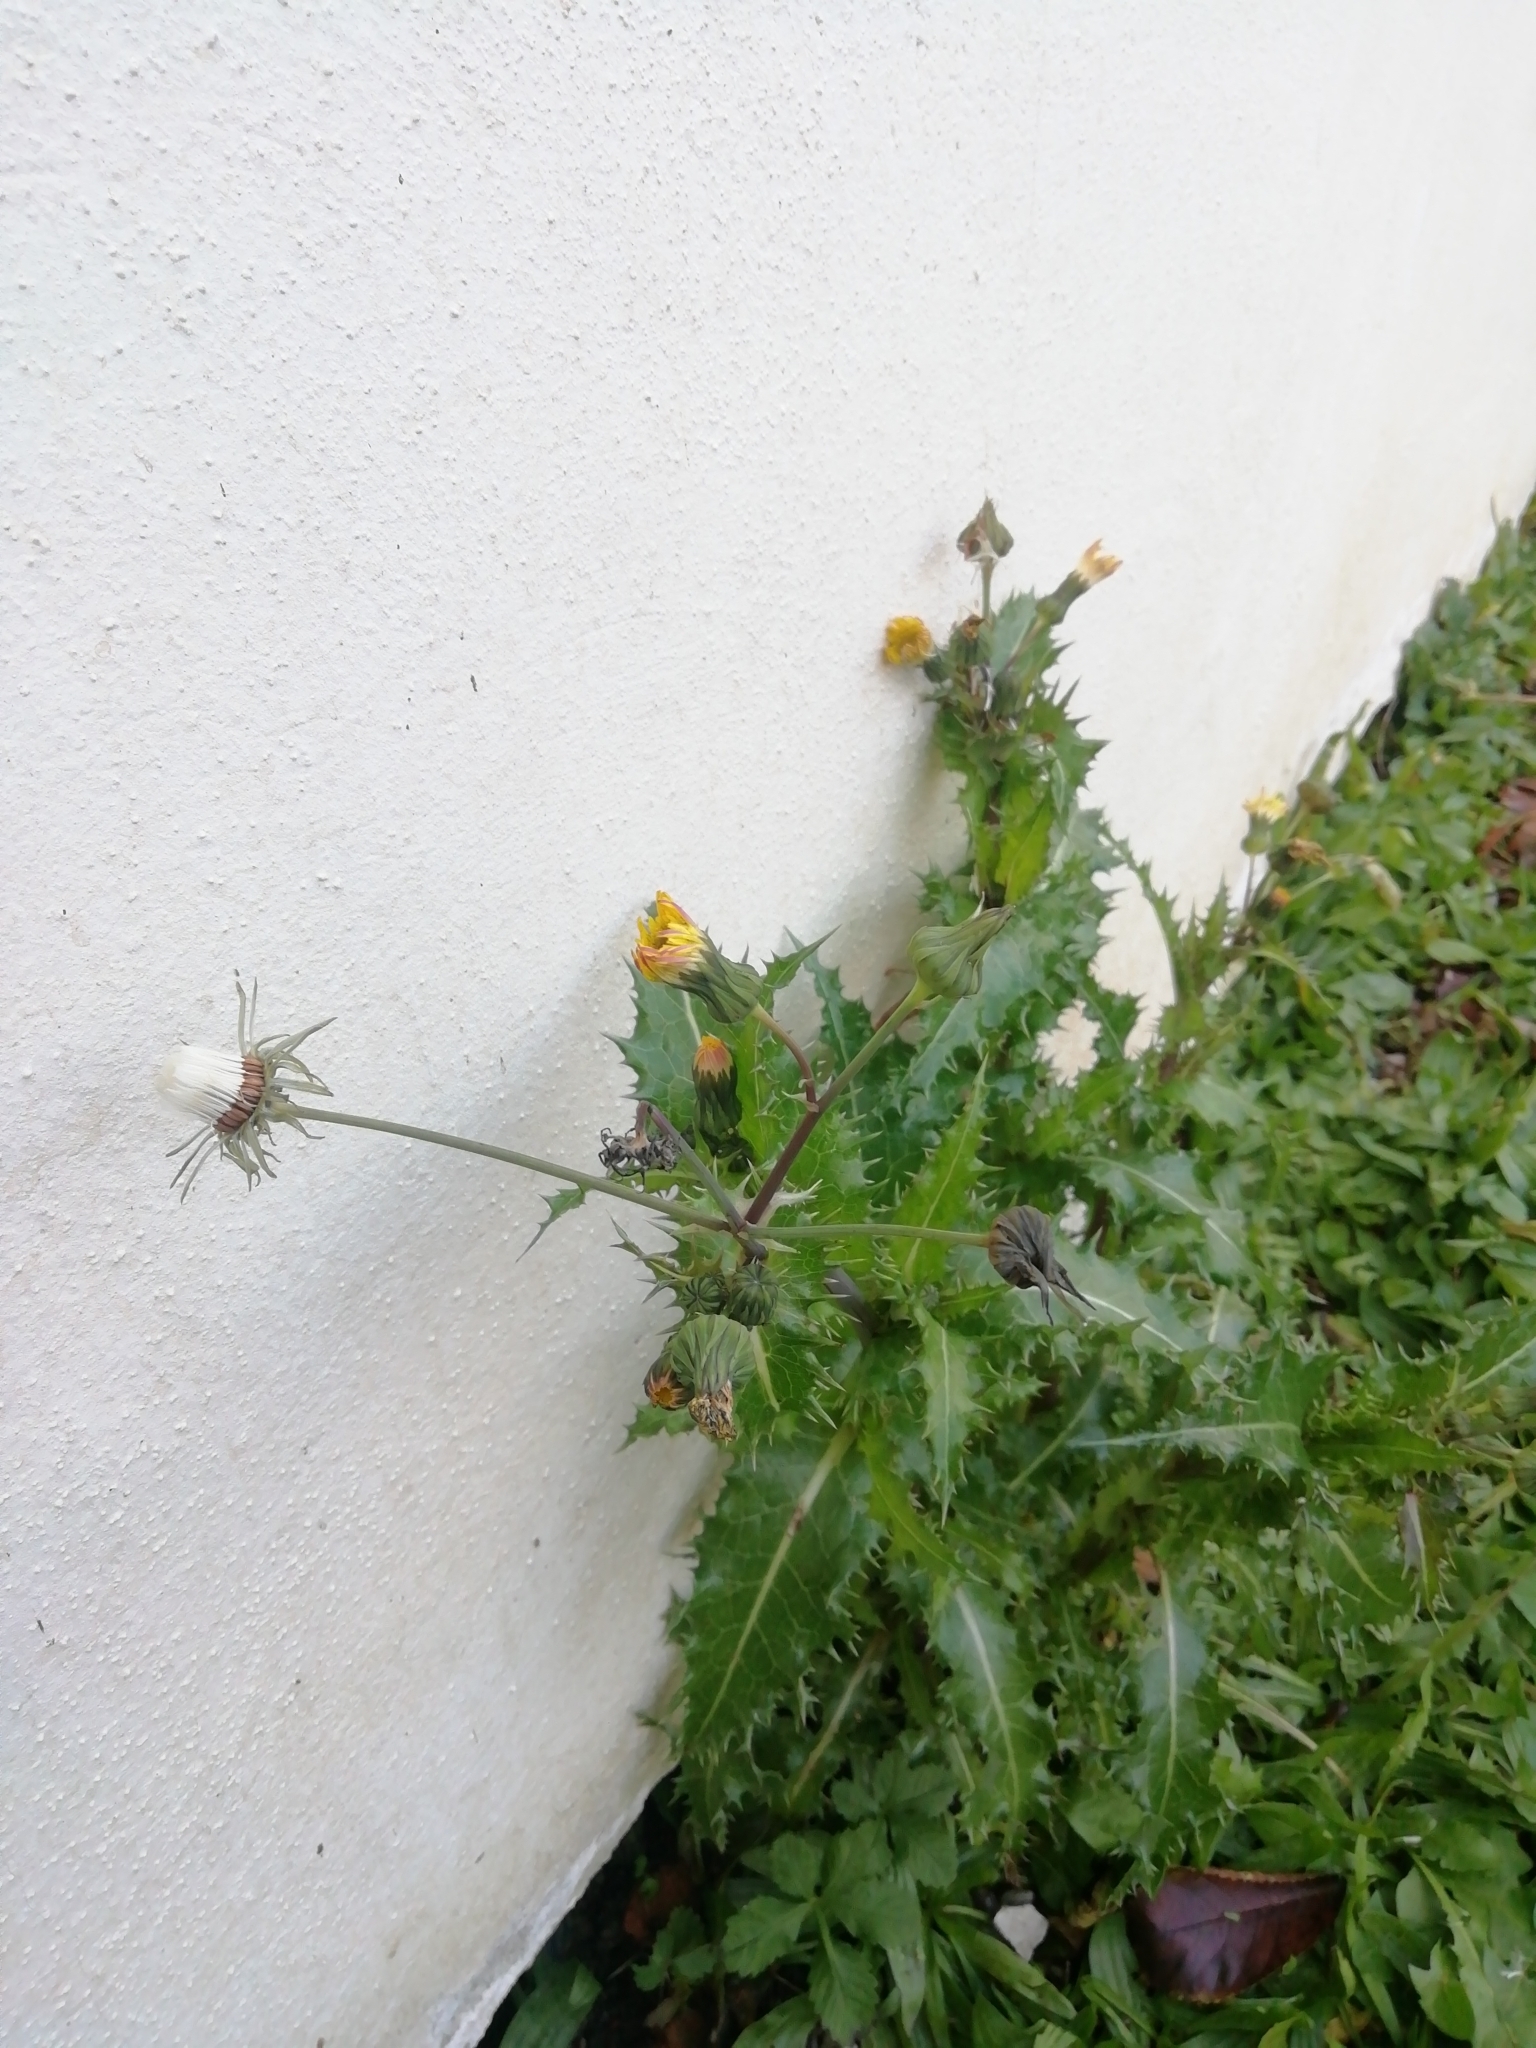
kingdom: Plantae
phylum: Tracheophyta
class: Magnoliopsida
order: Asterales
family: Asteraceae
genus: Sonchus
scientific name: Sonchus asper
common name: Prickly sow-thistle
